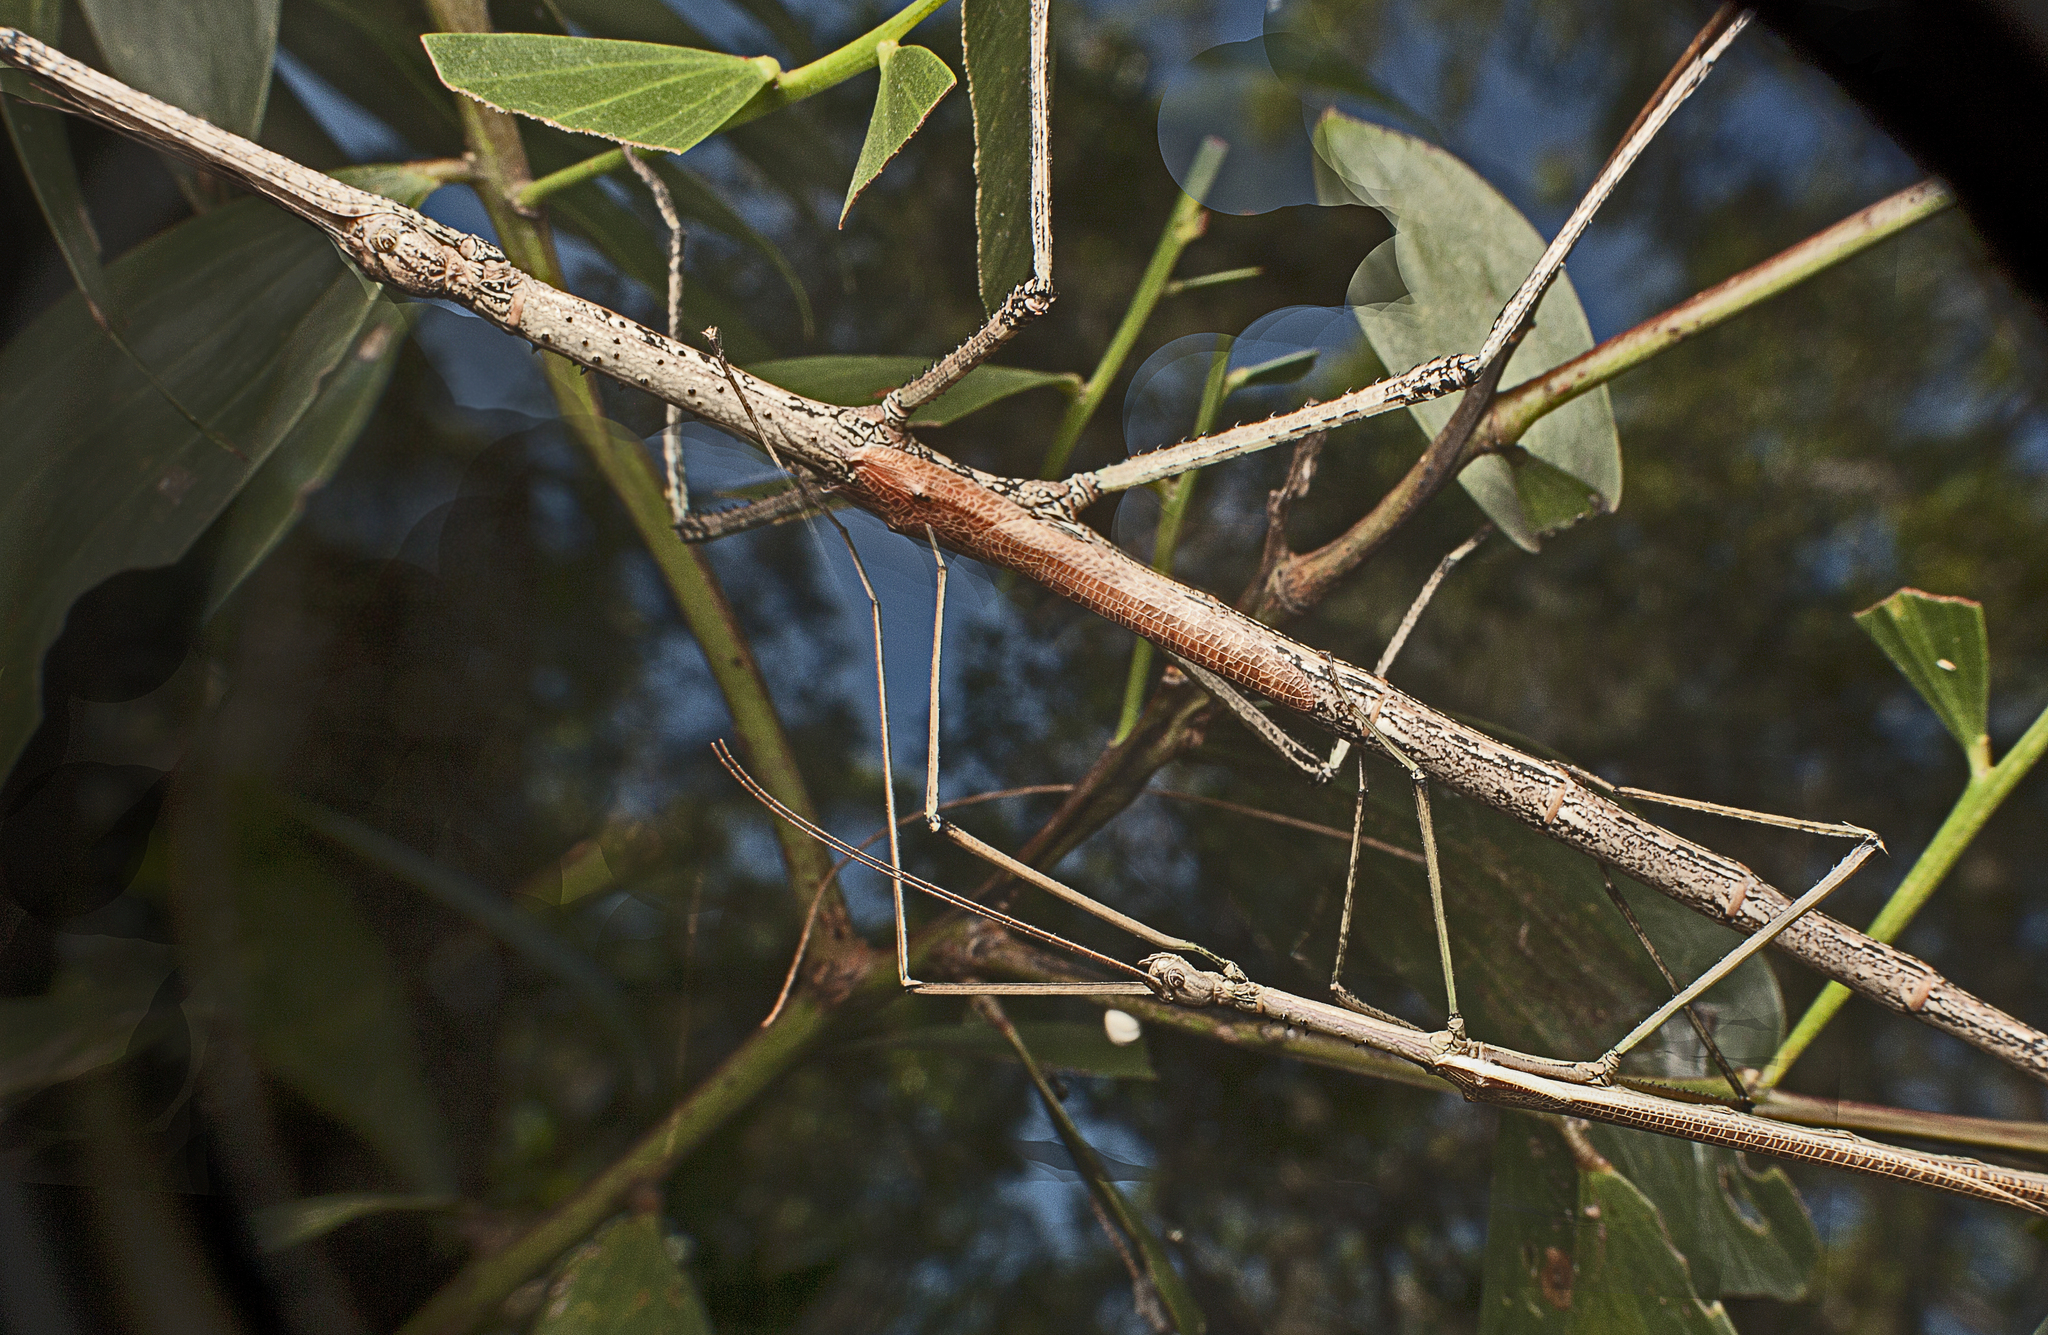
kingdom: Animalia
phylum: Arthropoda
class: Insecta
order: Phasmida
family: Phasmatidae
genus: Anchiale
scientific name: Anchiale austrotessulata
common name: Tessellated stick-insect
